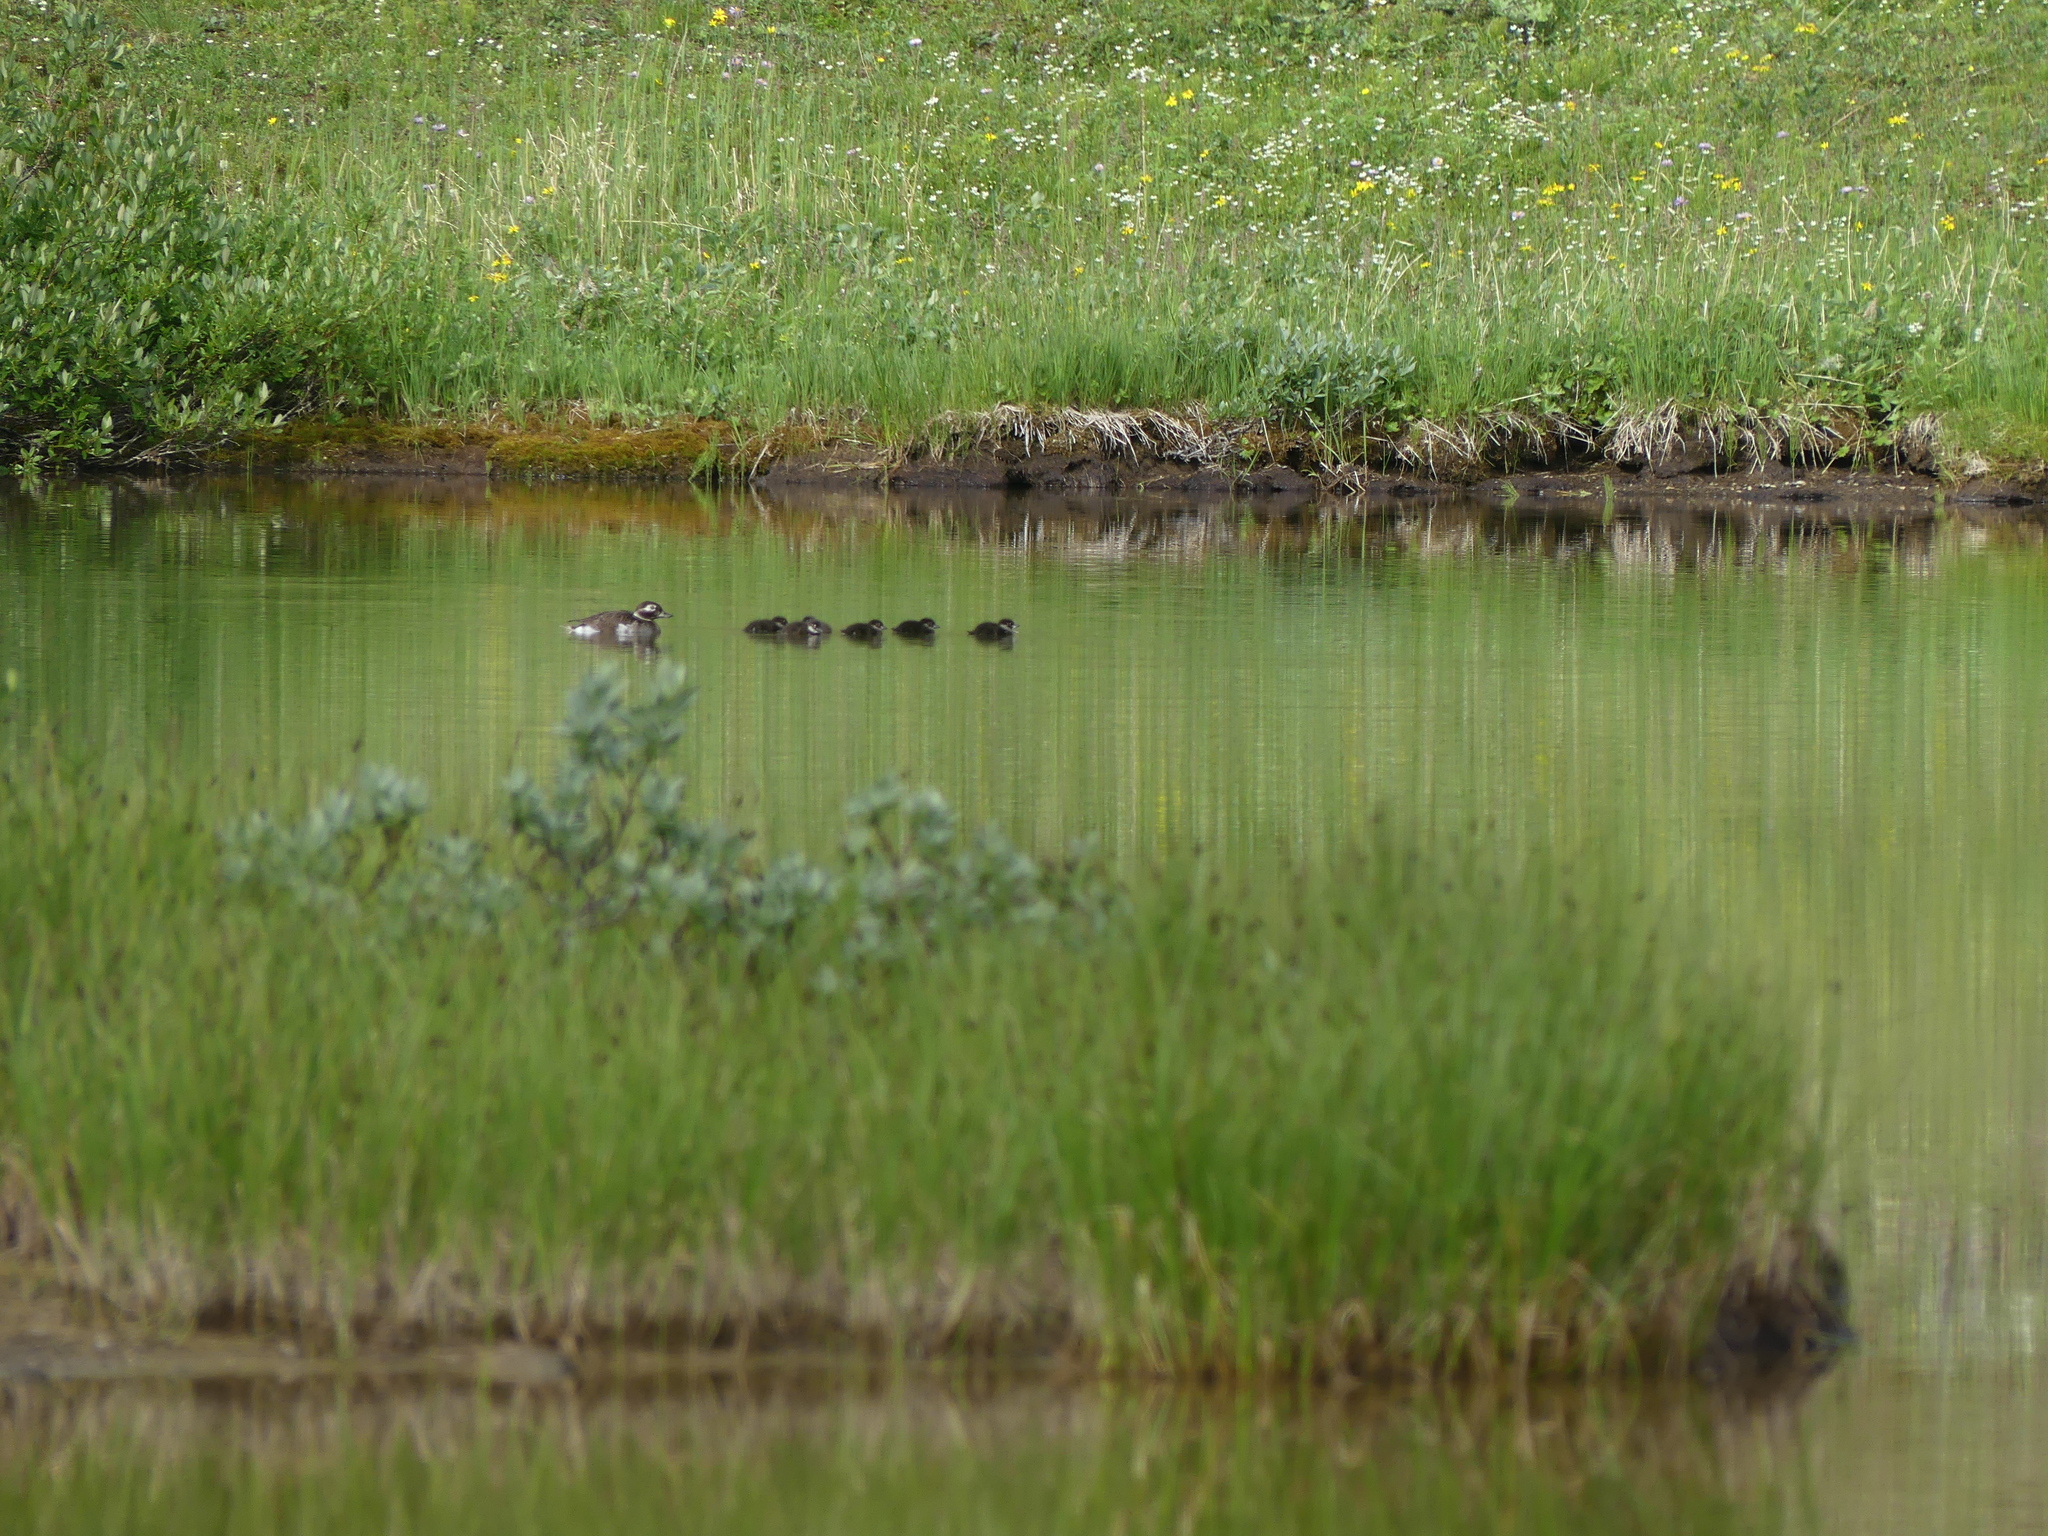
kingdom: Animalia
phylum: Chordata
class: Aves
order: Anseriformes
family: Anatidae
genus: Clangula
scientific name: Clangula hyemalis
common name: Long-tailed duck
